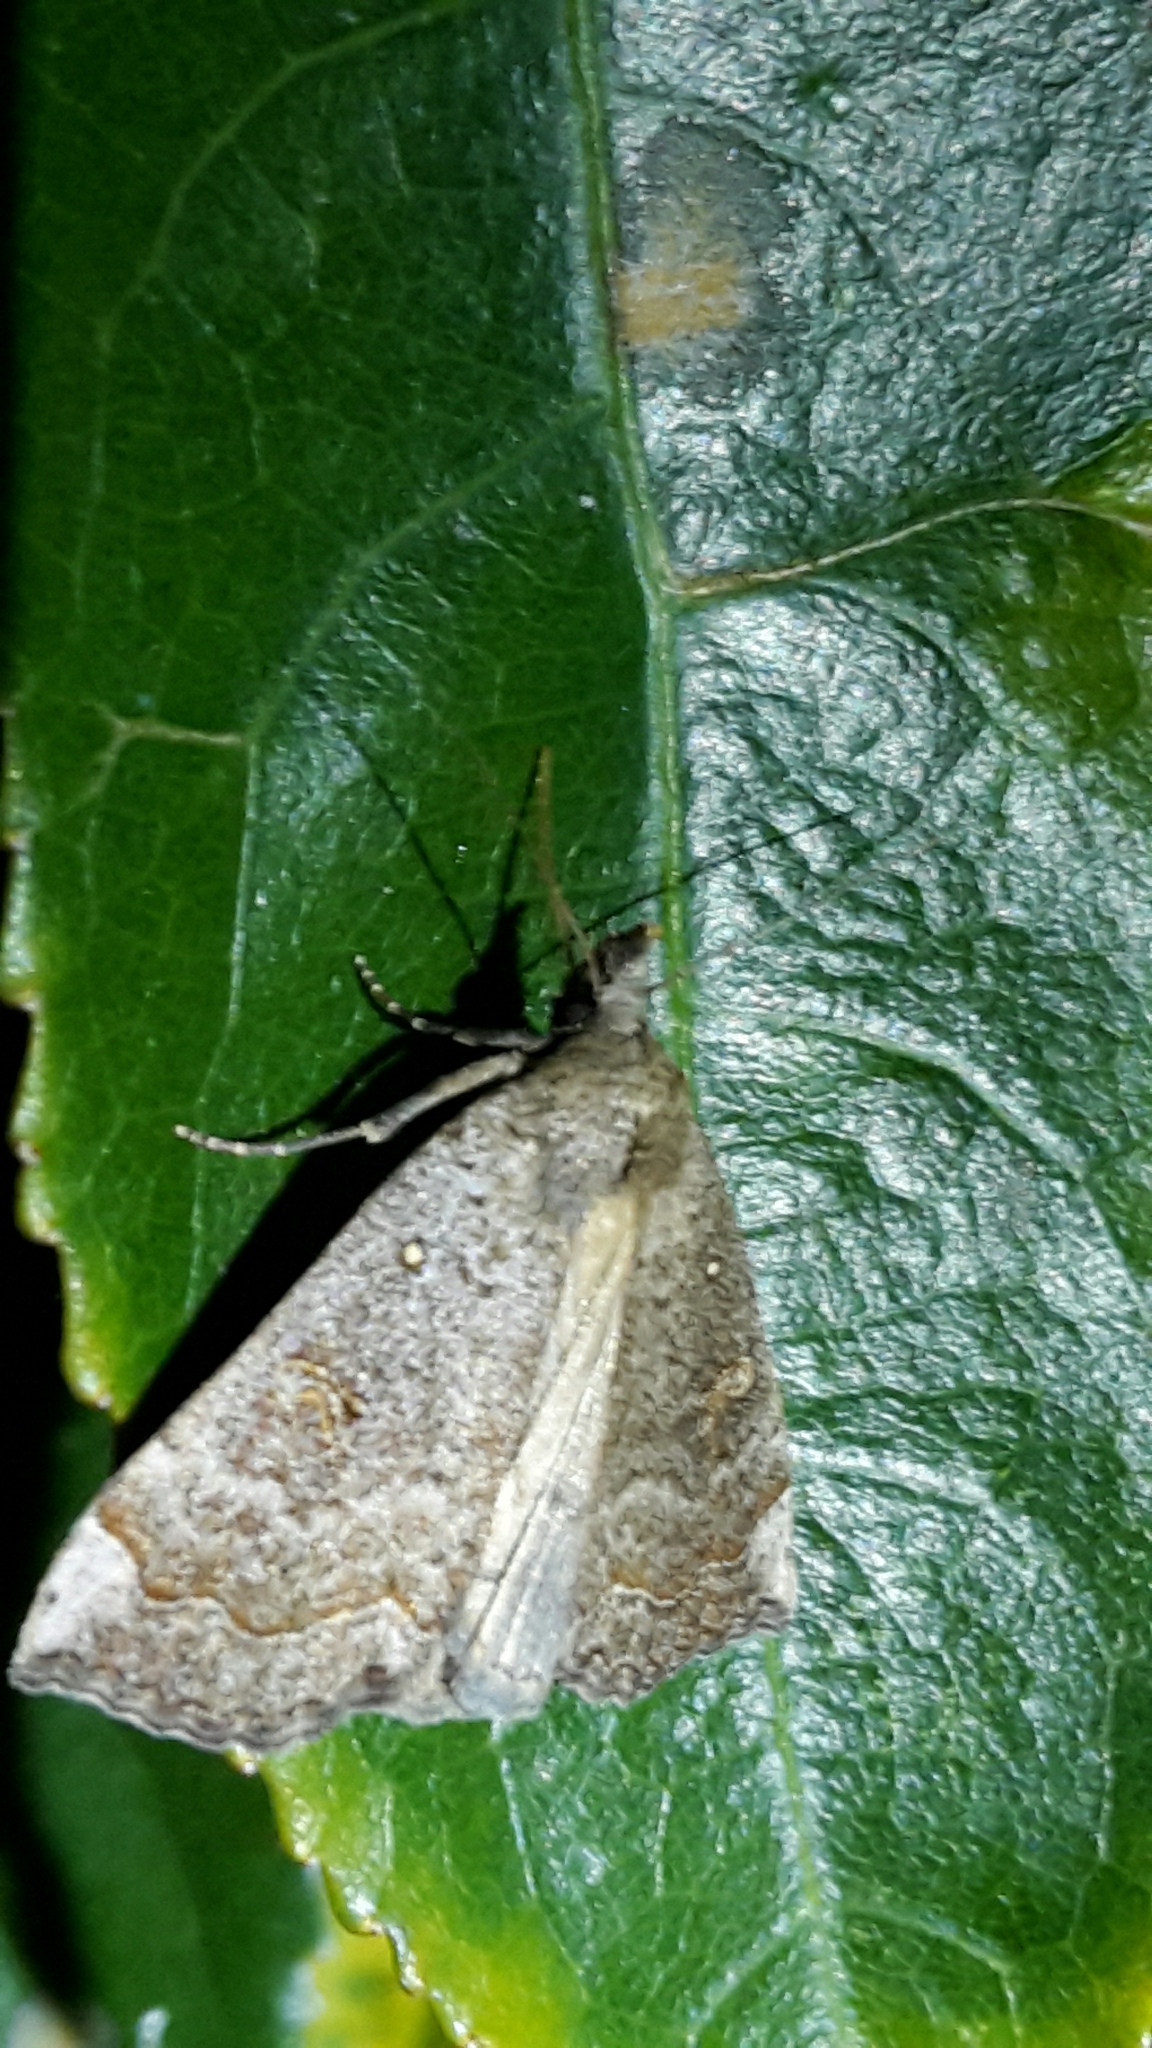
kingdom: Animalia
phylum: Arthropoda
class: Insecta
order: Lepidoptera
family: Erebidae
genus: Rhapsa
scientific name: Rhapsa scotosialis
